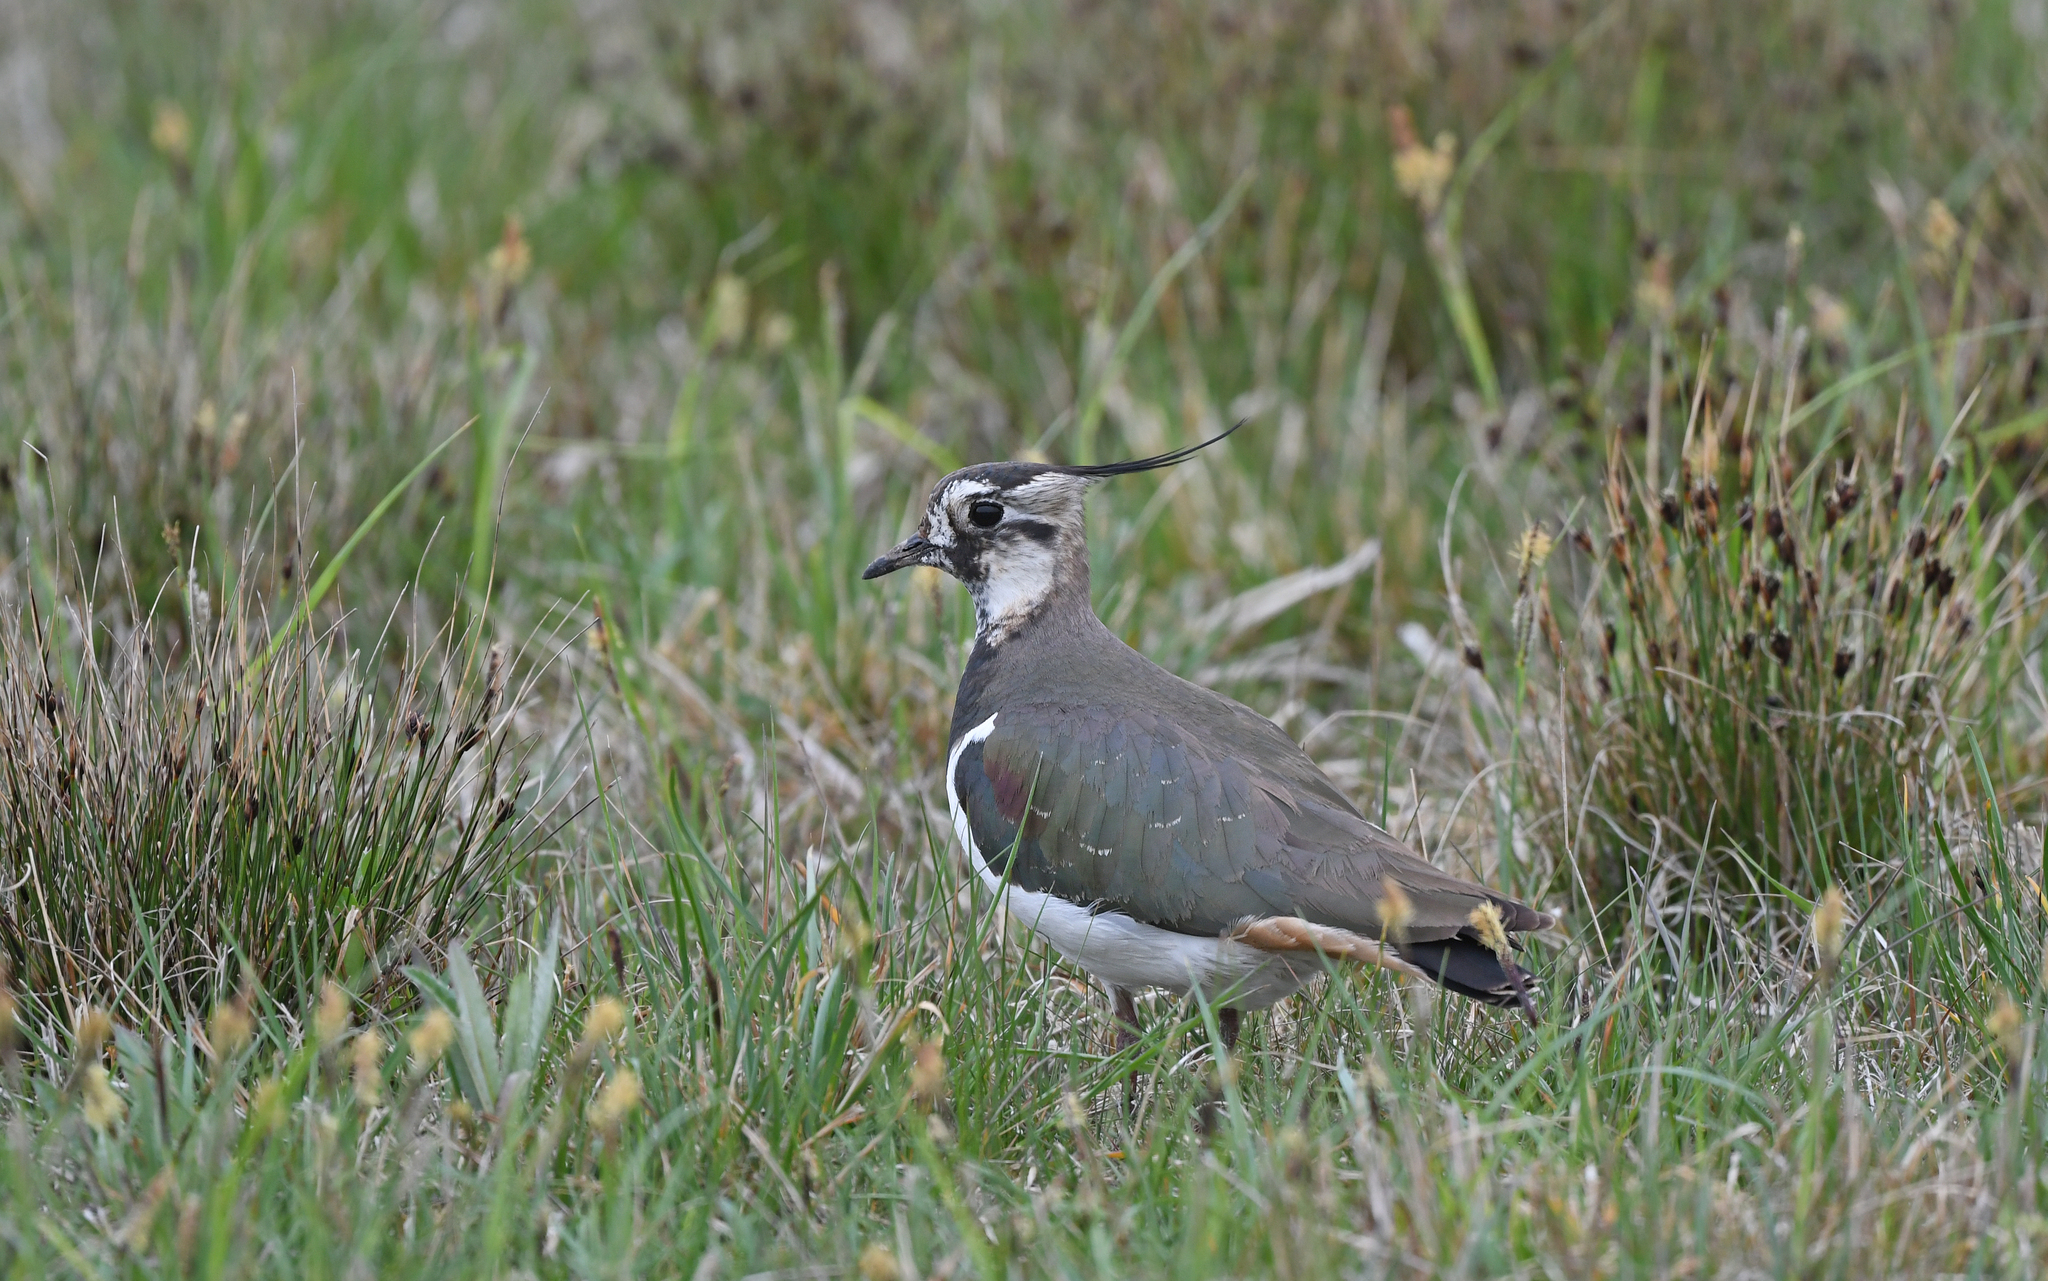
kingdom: Animalia
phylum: Chordata
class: Aves
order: Charadriiformes
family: Charadriidae
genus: Vanellus
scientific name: Vanellus vanellus
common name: Northern lapwing
